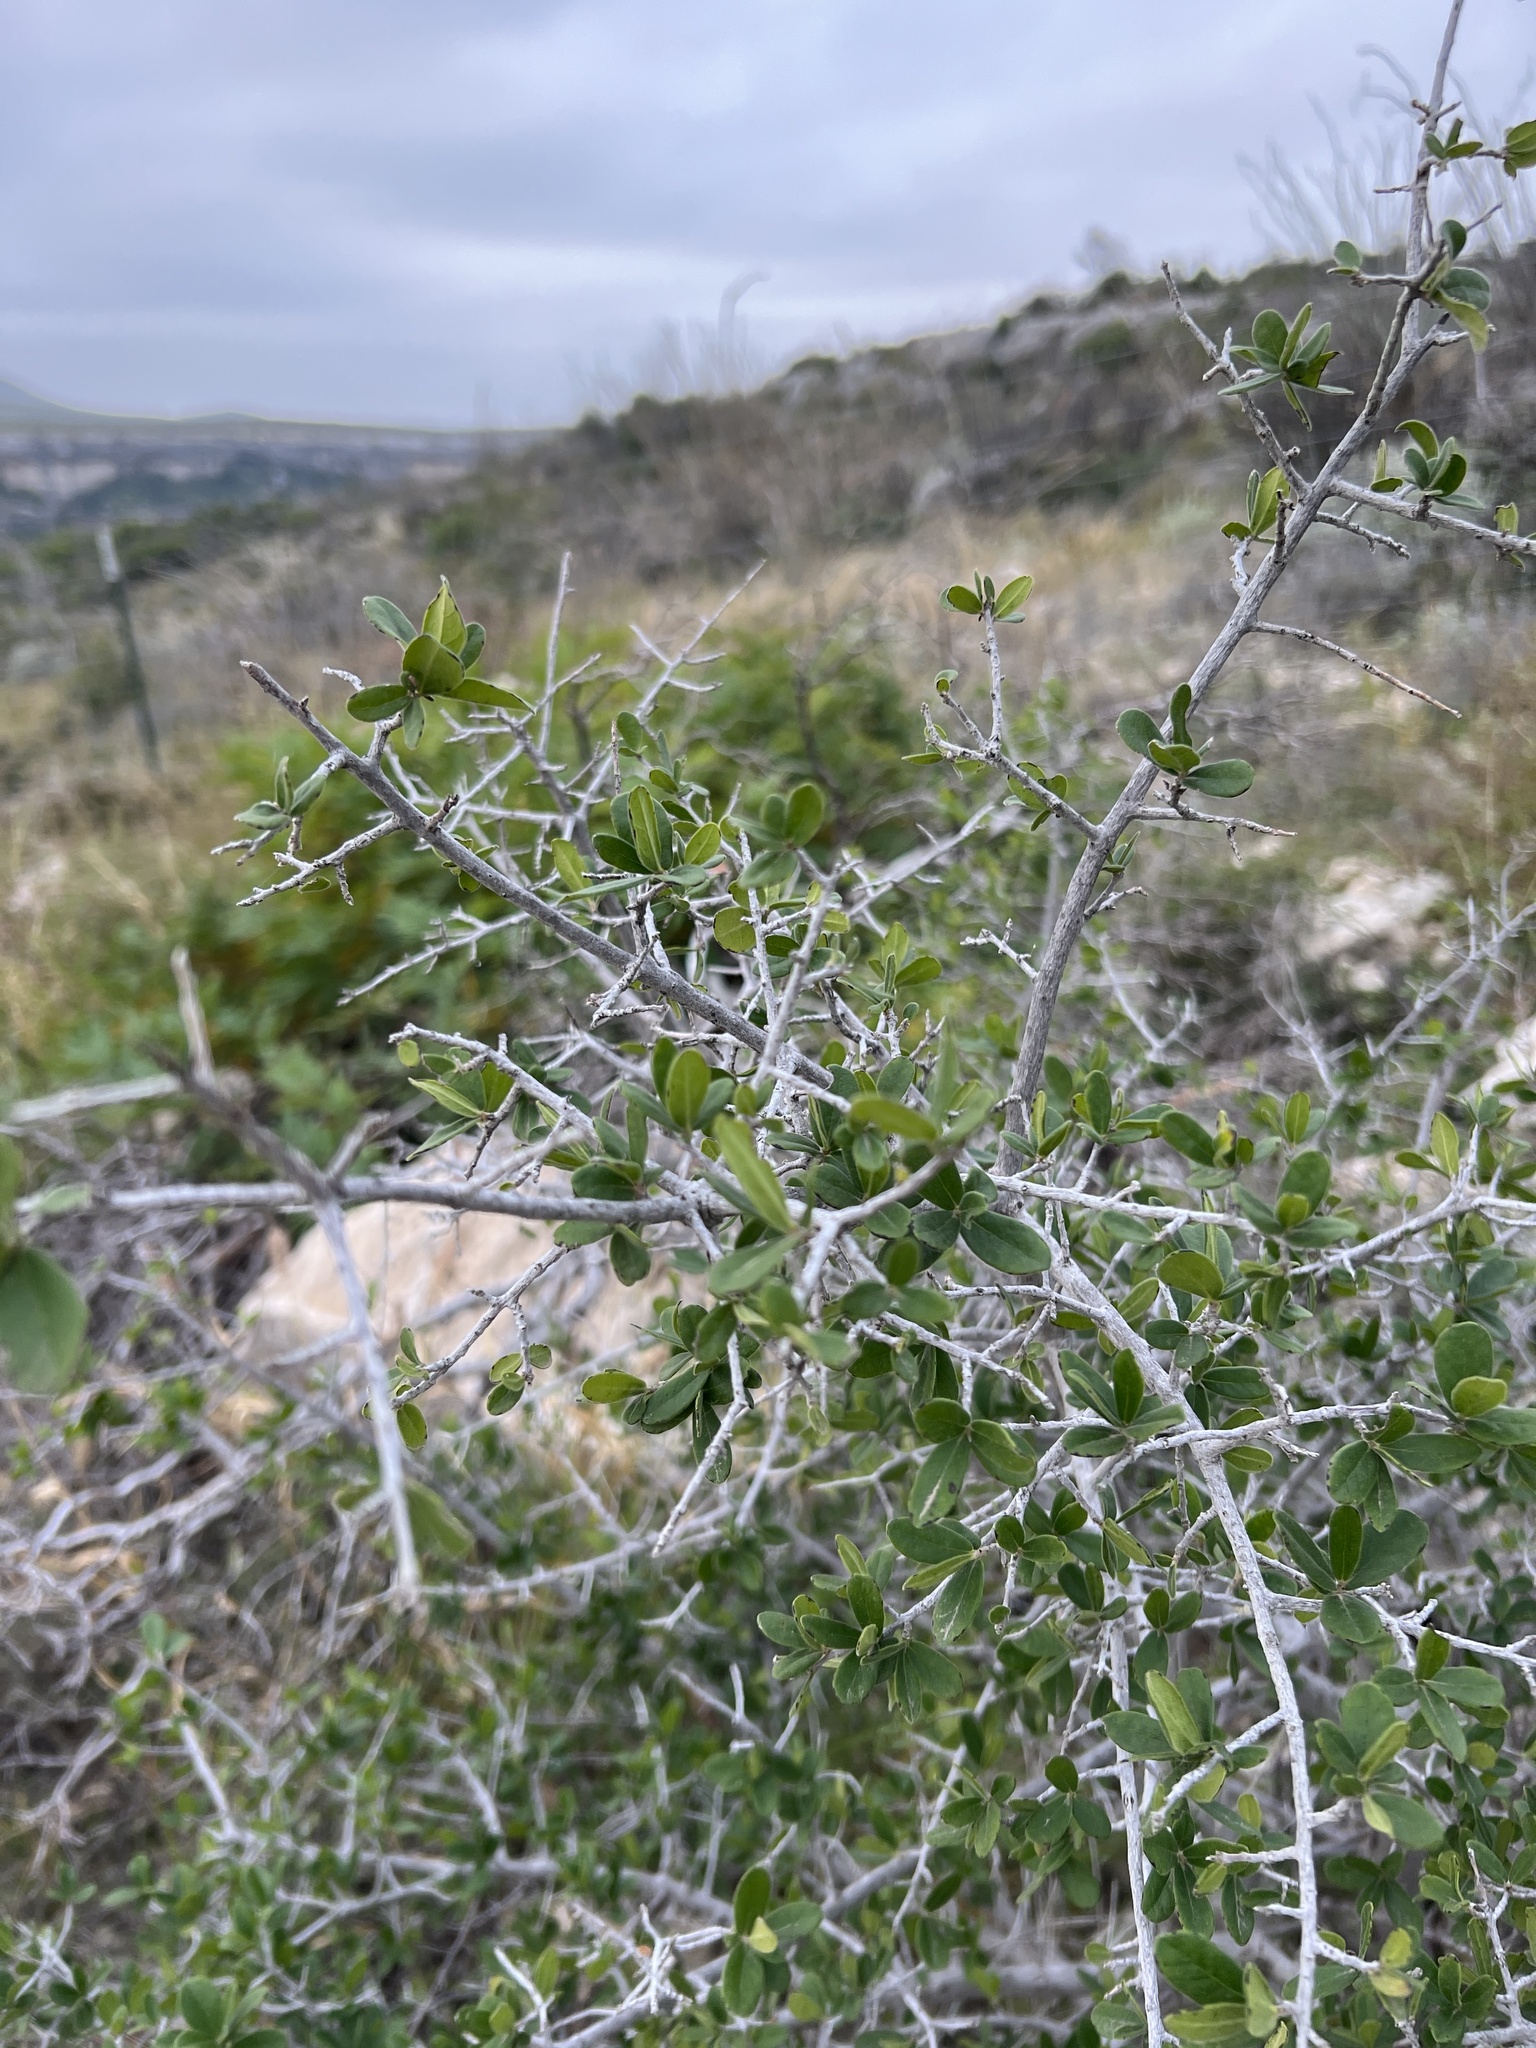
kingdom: Plantae
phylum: Tracheophyta
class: Magnoliopsida
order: Ericales
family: Ebenaceae
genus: Diospyros
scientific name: Diospyros texana
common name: Texas persimmon
